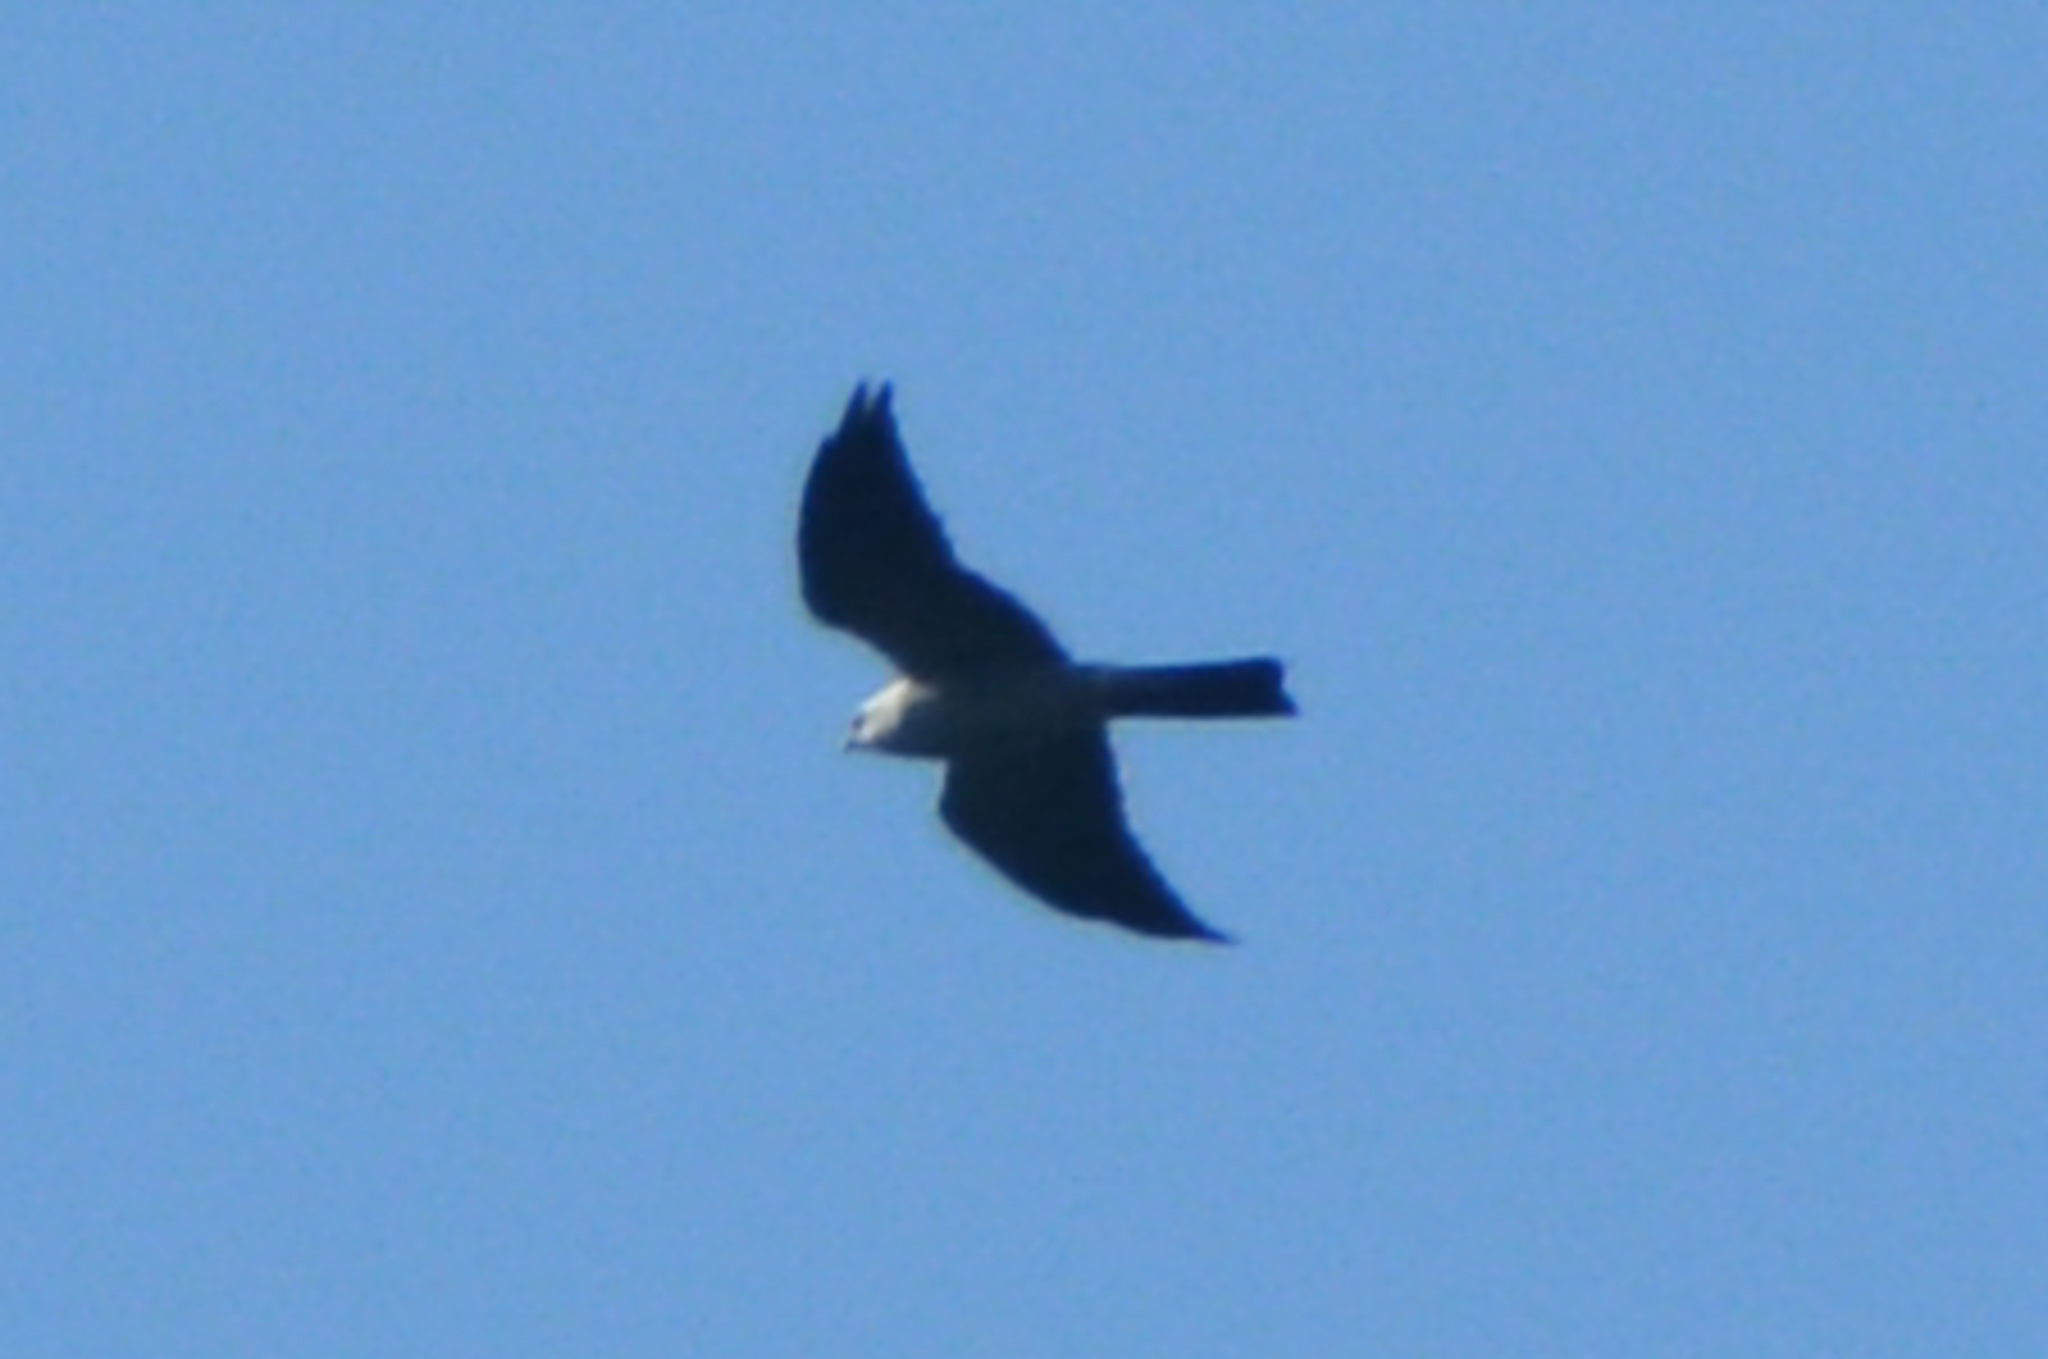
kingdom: Animalia
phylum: Chordata
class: Aves
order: Accipitriformes
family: Accipitridae
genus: Ictinia
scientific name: Ictinia mississippiensis
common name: Mississippi kite
